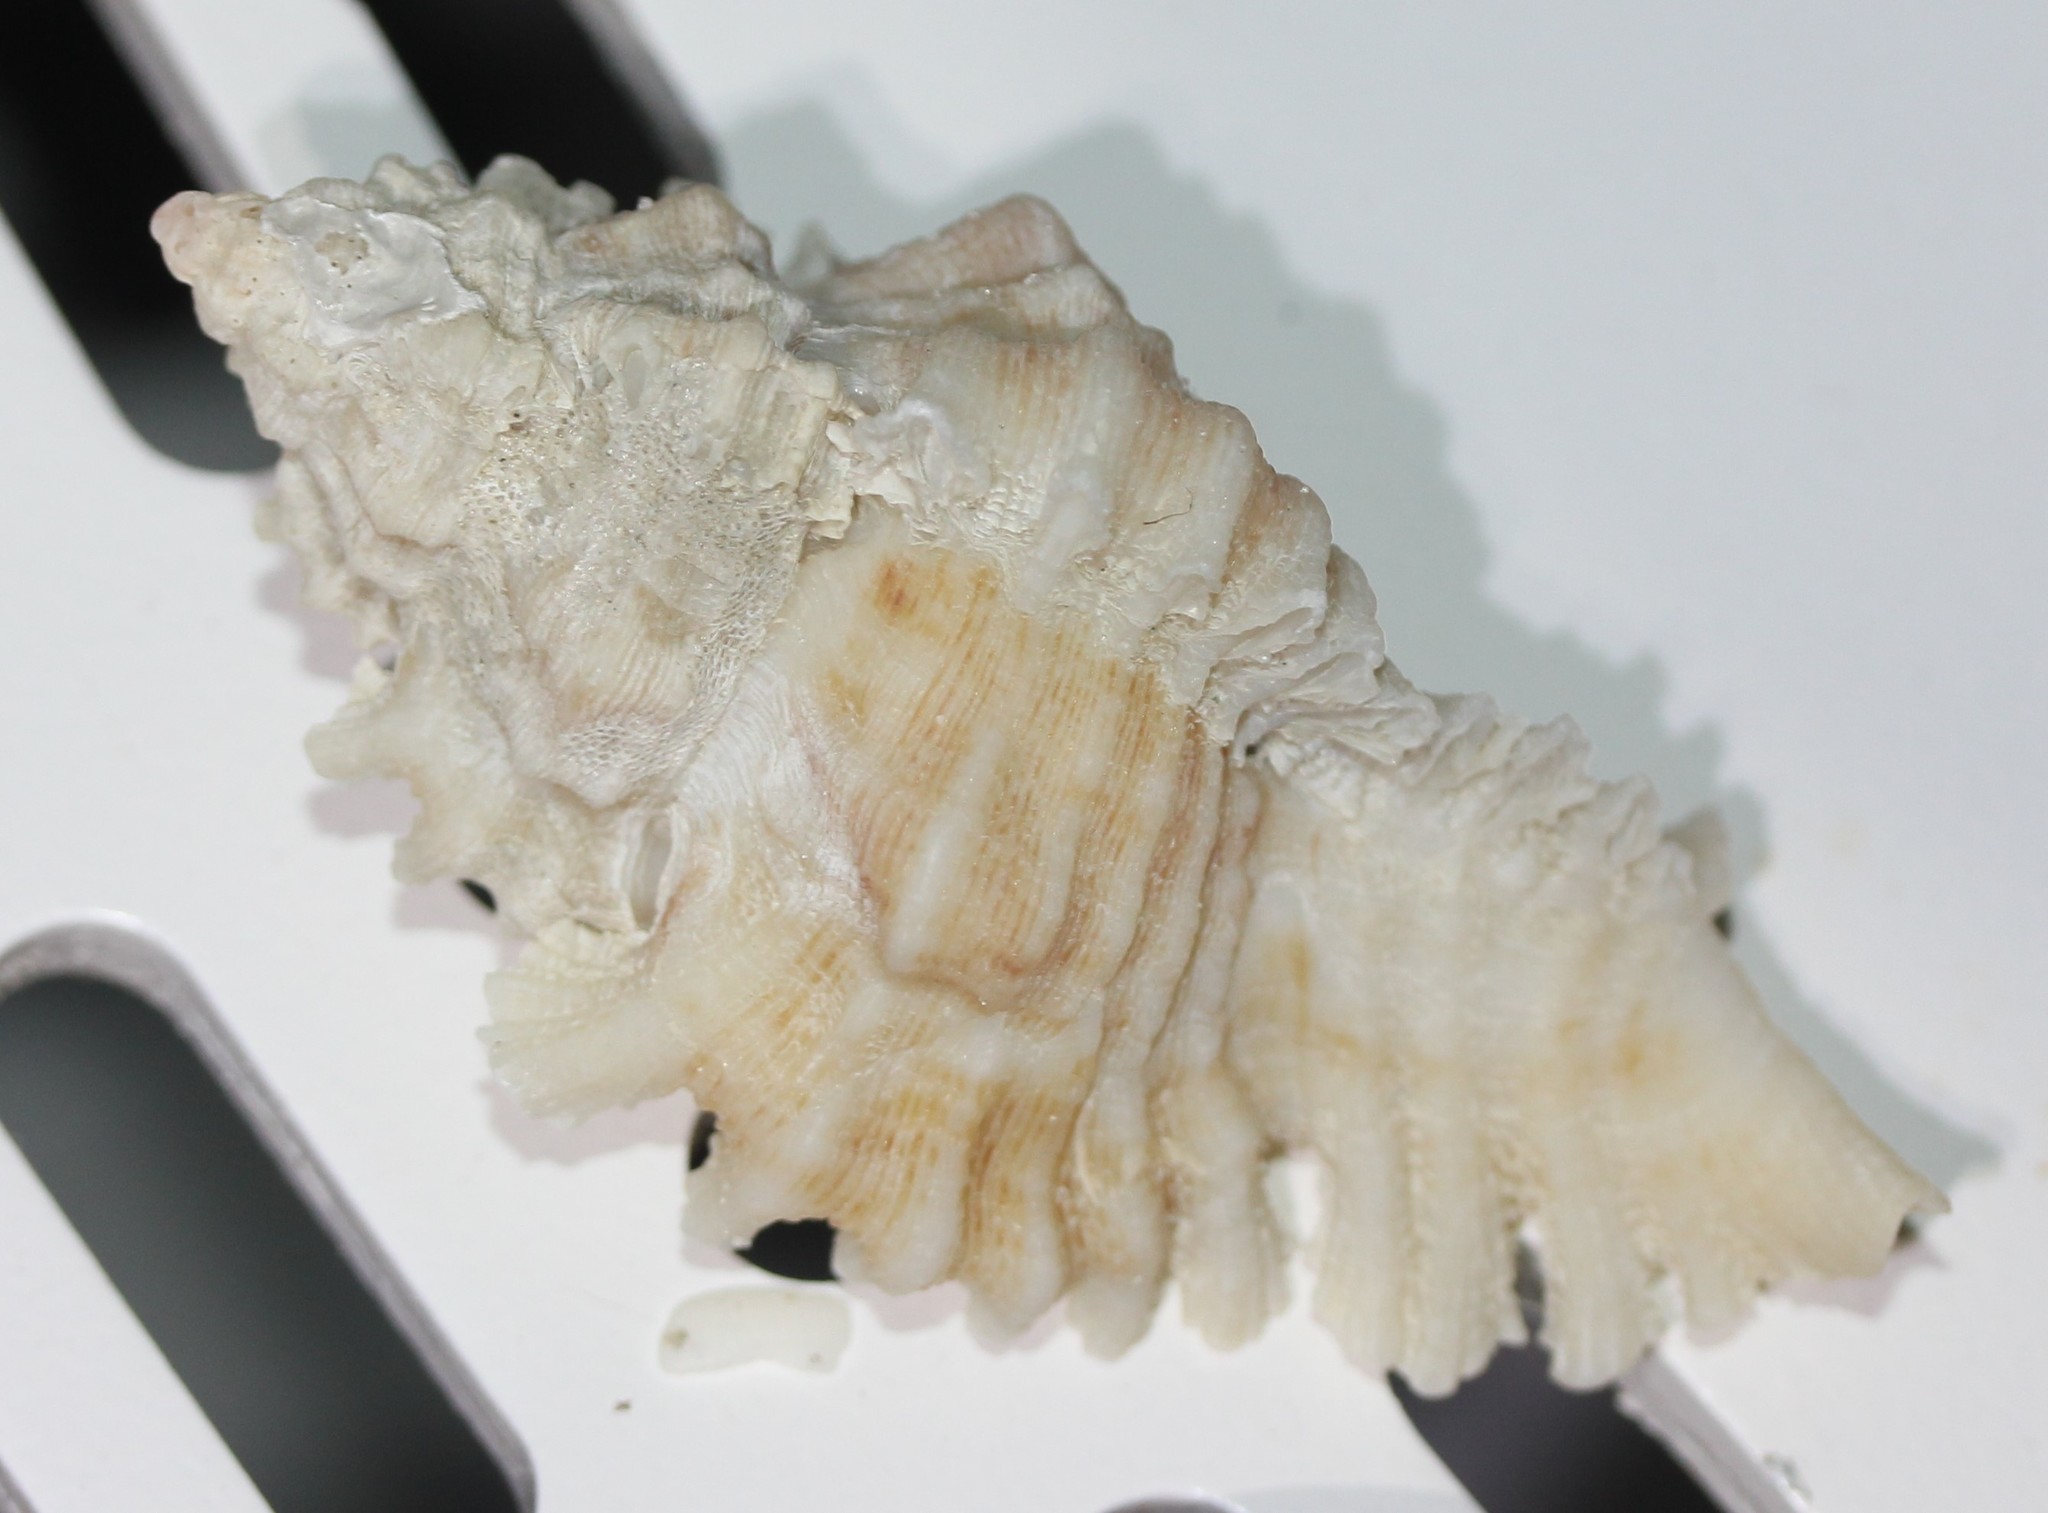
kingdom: Animalia
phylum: Mollusca
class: Gastropoda
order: Neogastropoda
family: Muricidae
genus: Chicoreus
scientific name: Chicoreus florifer
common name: Flowery lace murex
